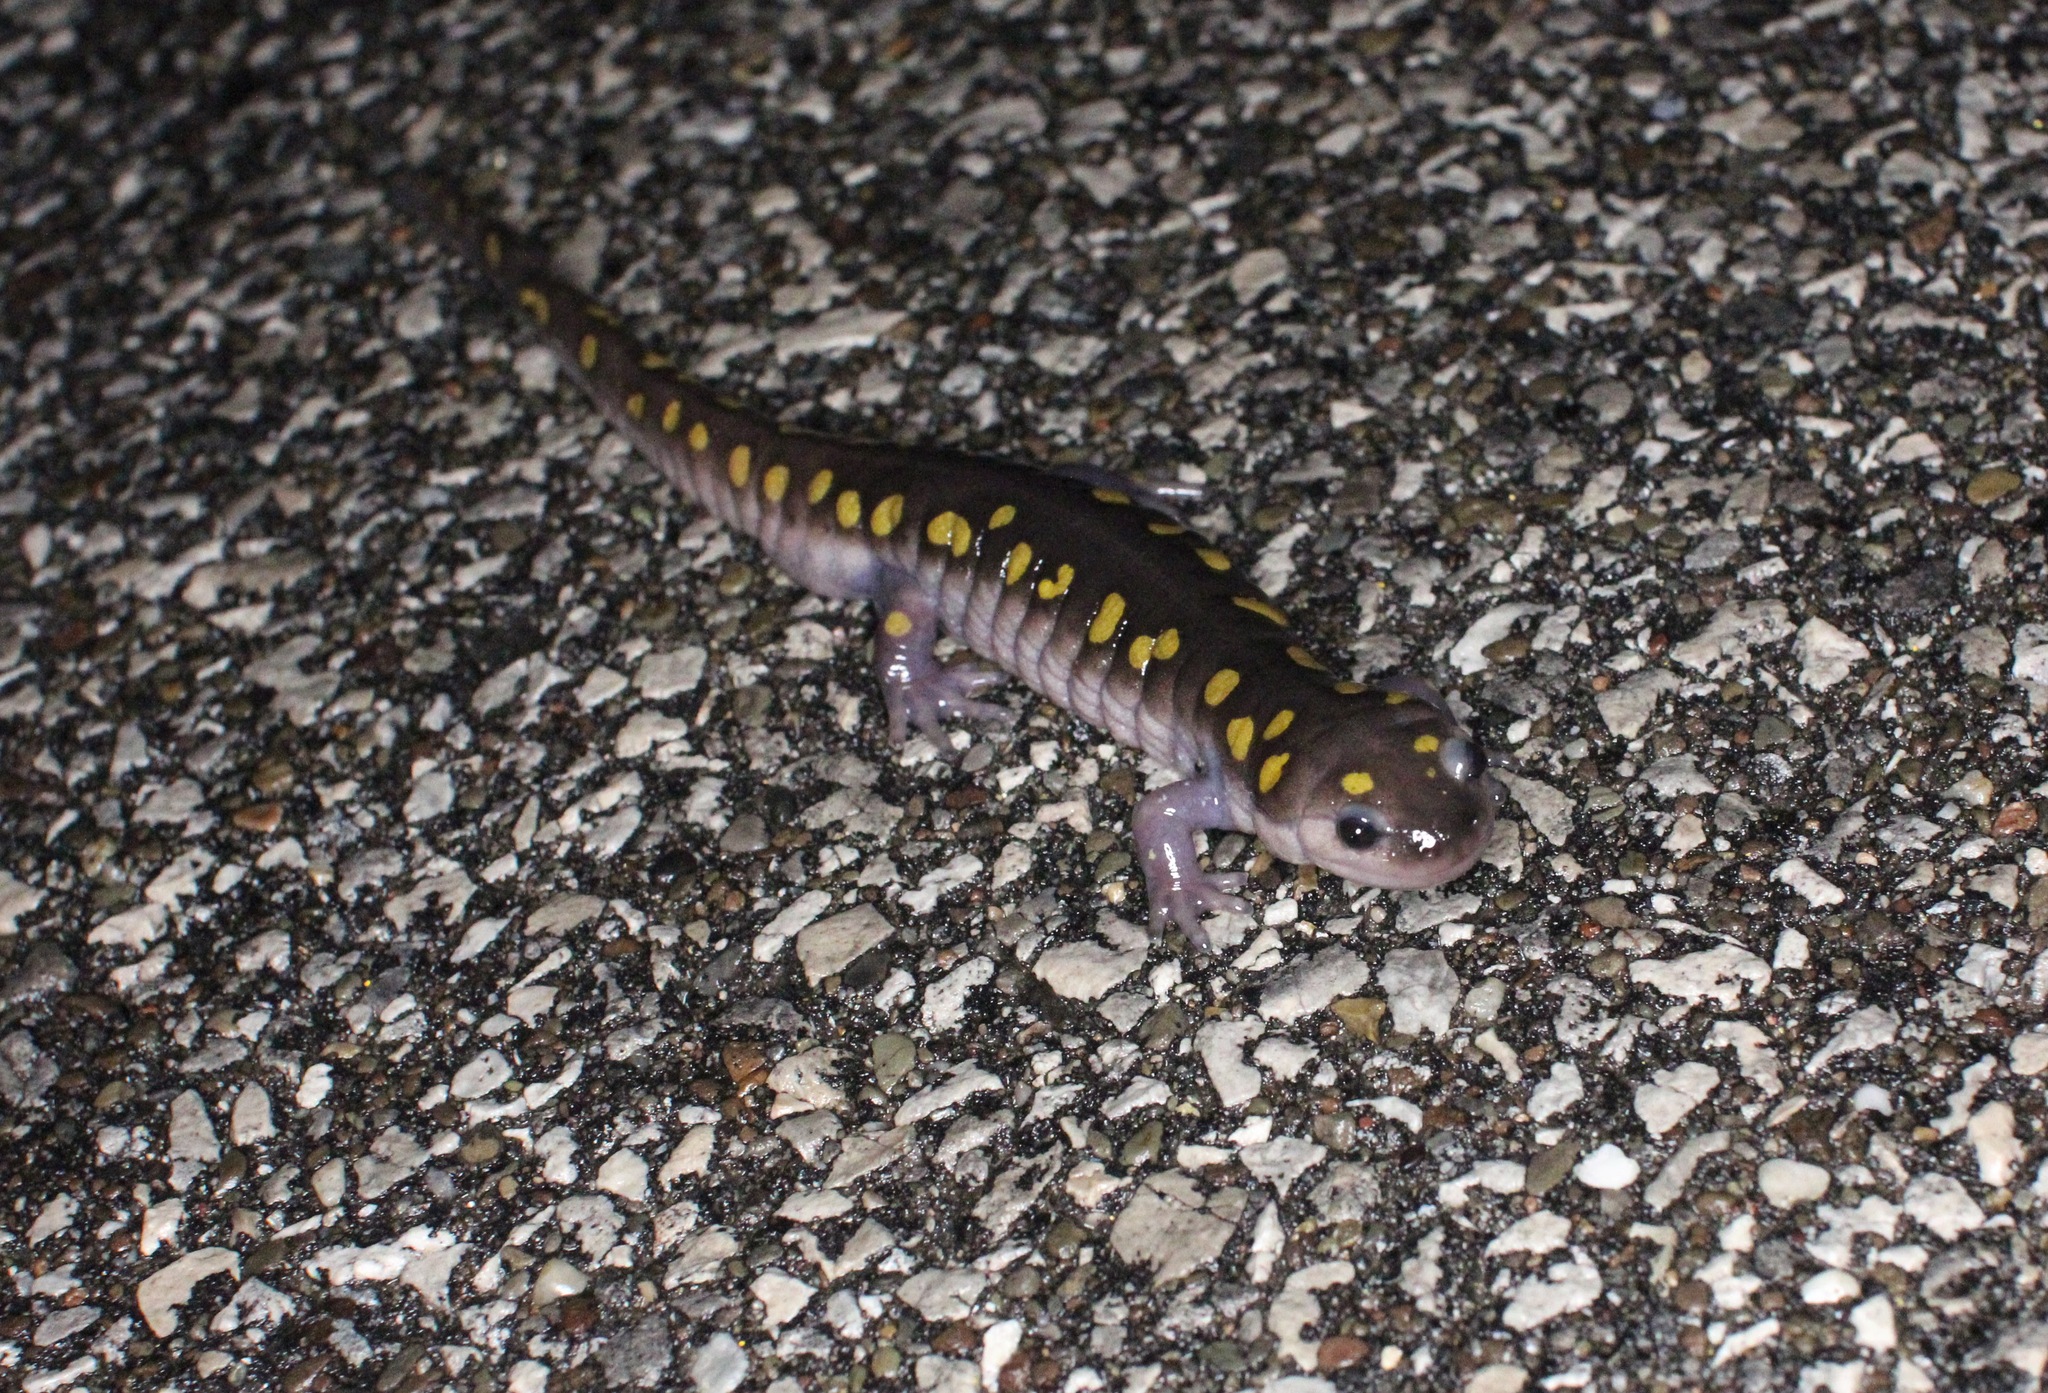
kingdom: Animalia
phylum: Chordata
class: Amphibia
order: Caudata
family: Ambystomatidae
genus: Ambystoma
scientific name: Ambystoma maculatum
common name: Spotted salamander
